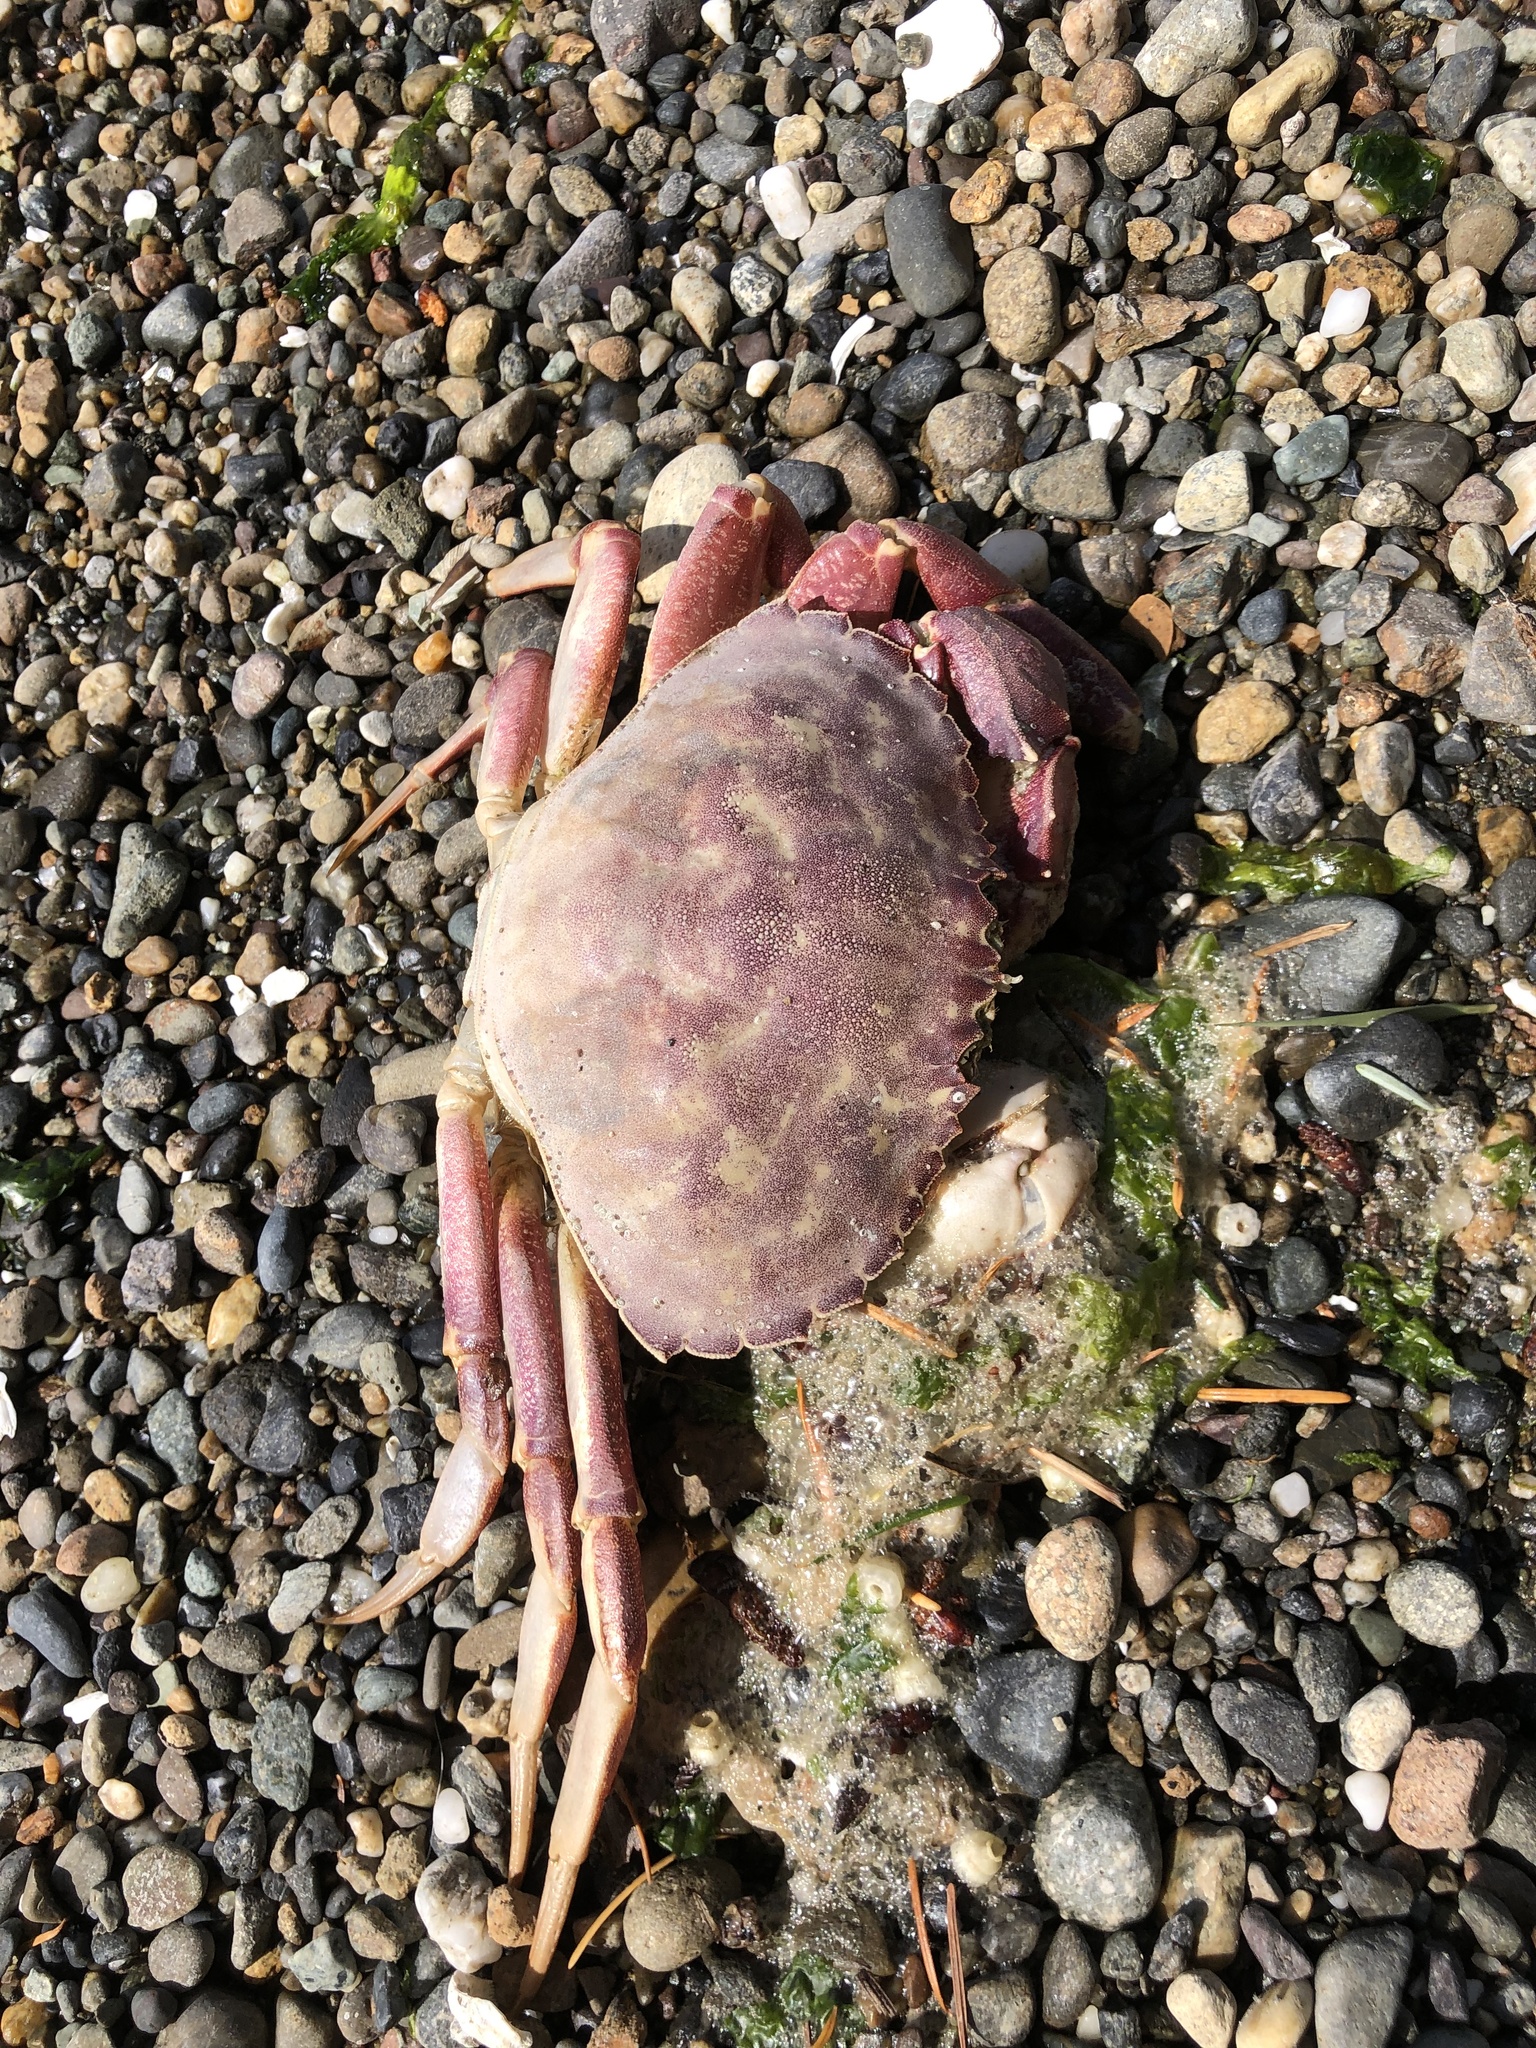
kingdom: Animalia
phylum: Arthropoda
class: Malacostraca
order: Decapoda
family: Cancridae
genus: Metacarcinus
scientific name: Metacarcinus gracilis
